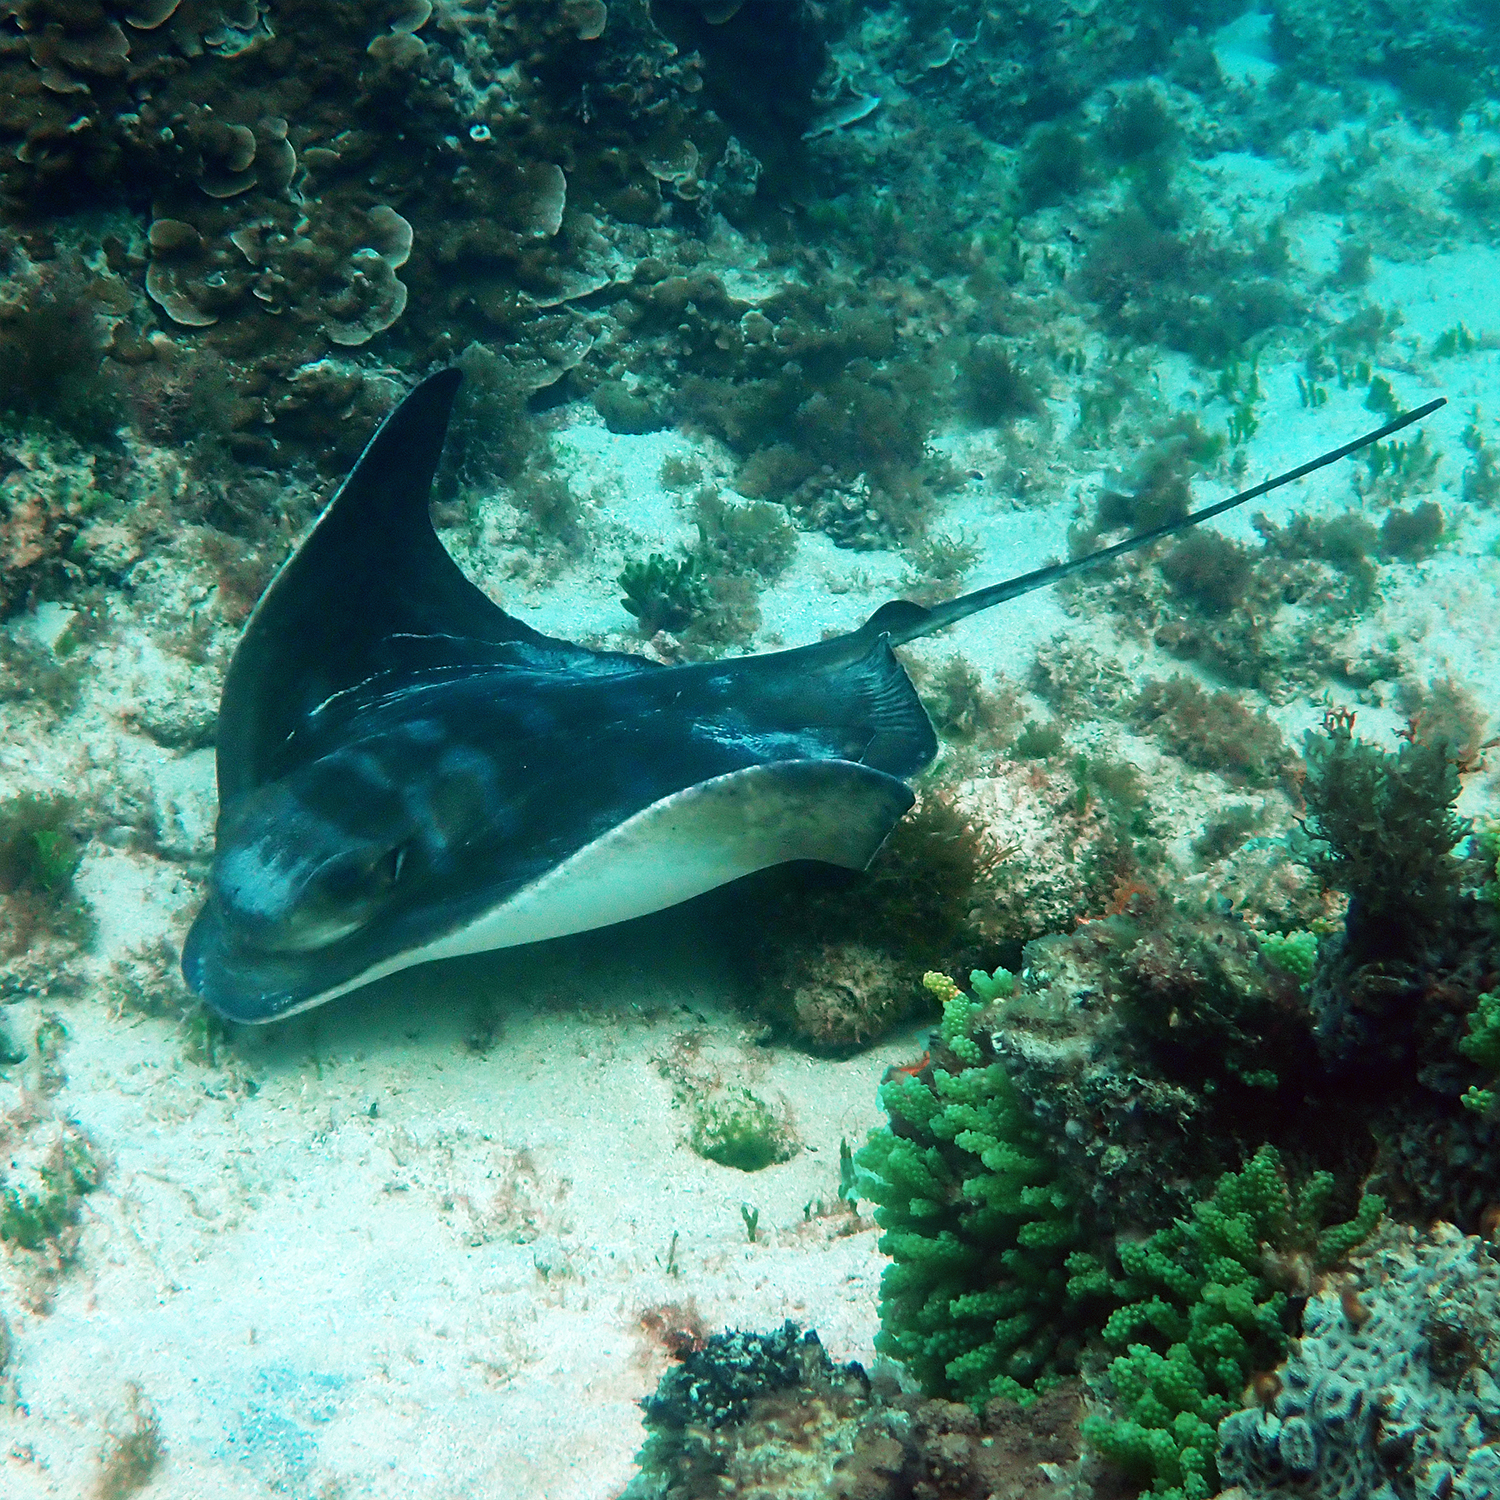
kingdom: Animalia
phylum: Chordata
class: Elasmobranchii
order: Myliobatiformes
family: Myliobatidae
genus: Myliobatis
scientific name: Myliobatis tenuicaudatus
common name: Eagle ray
